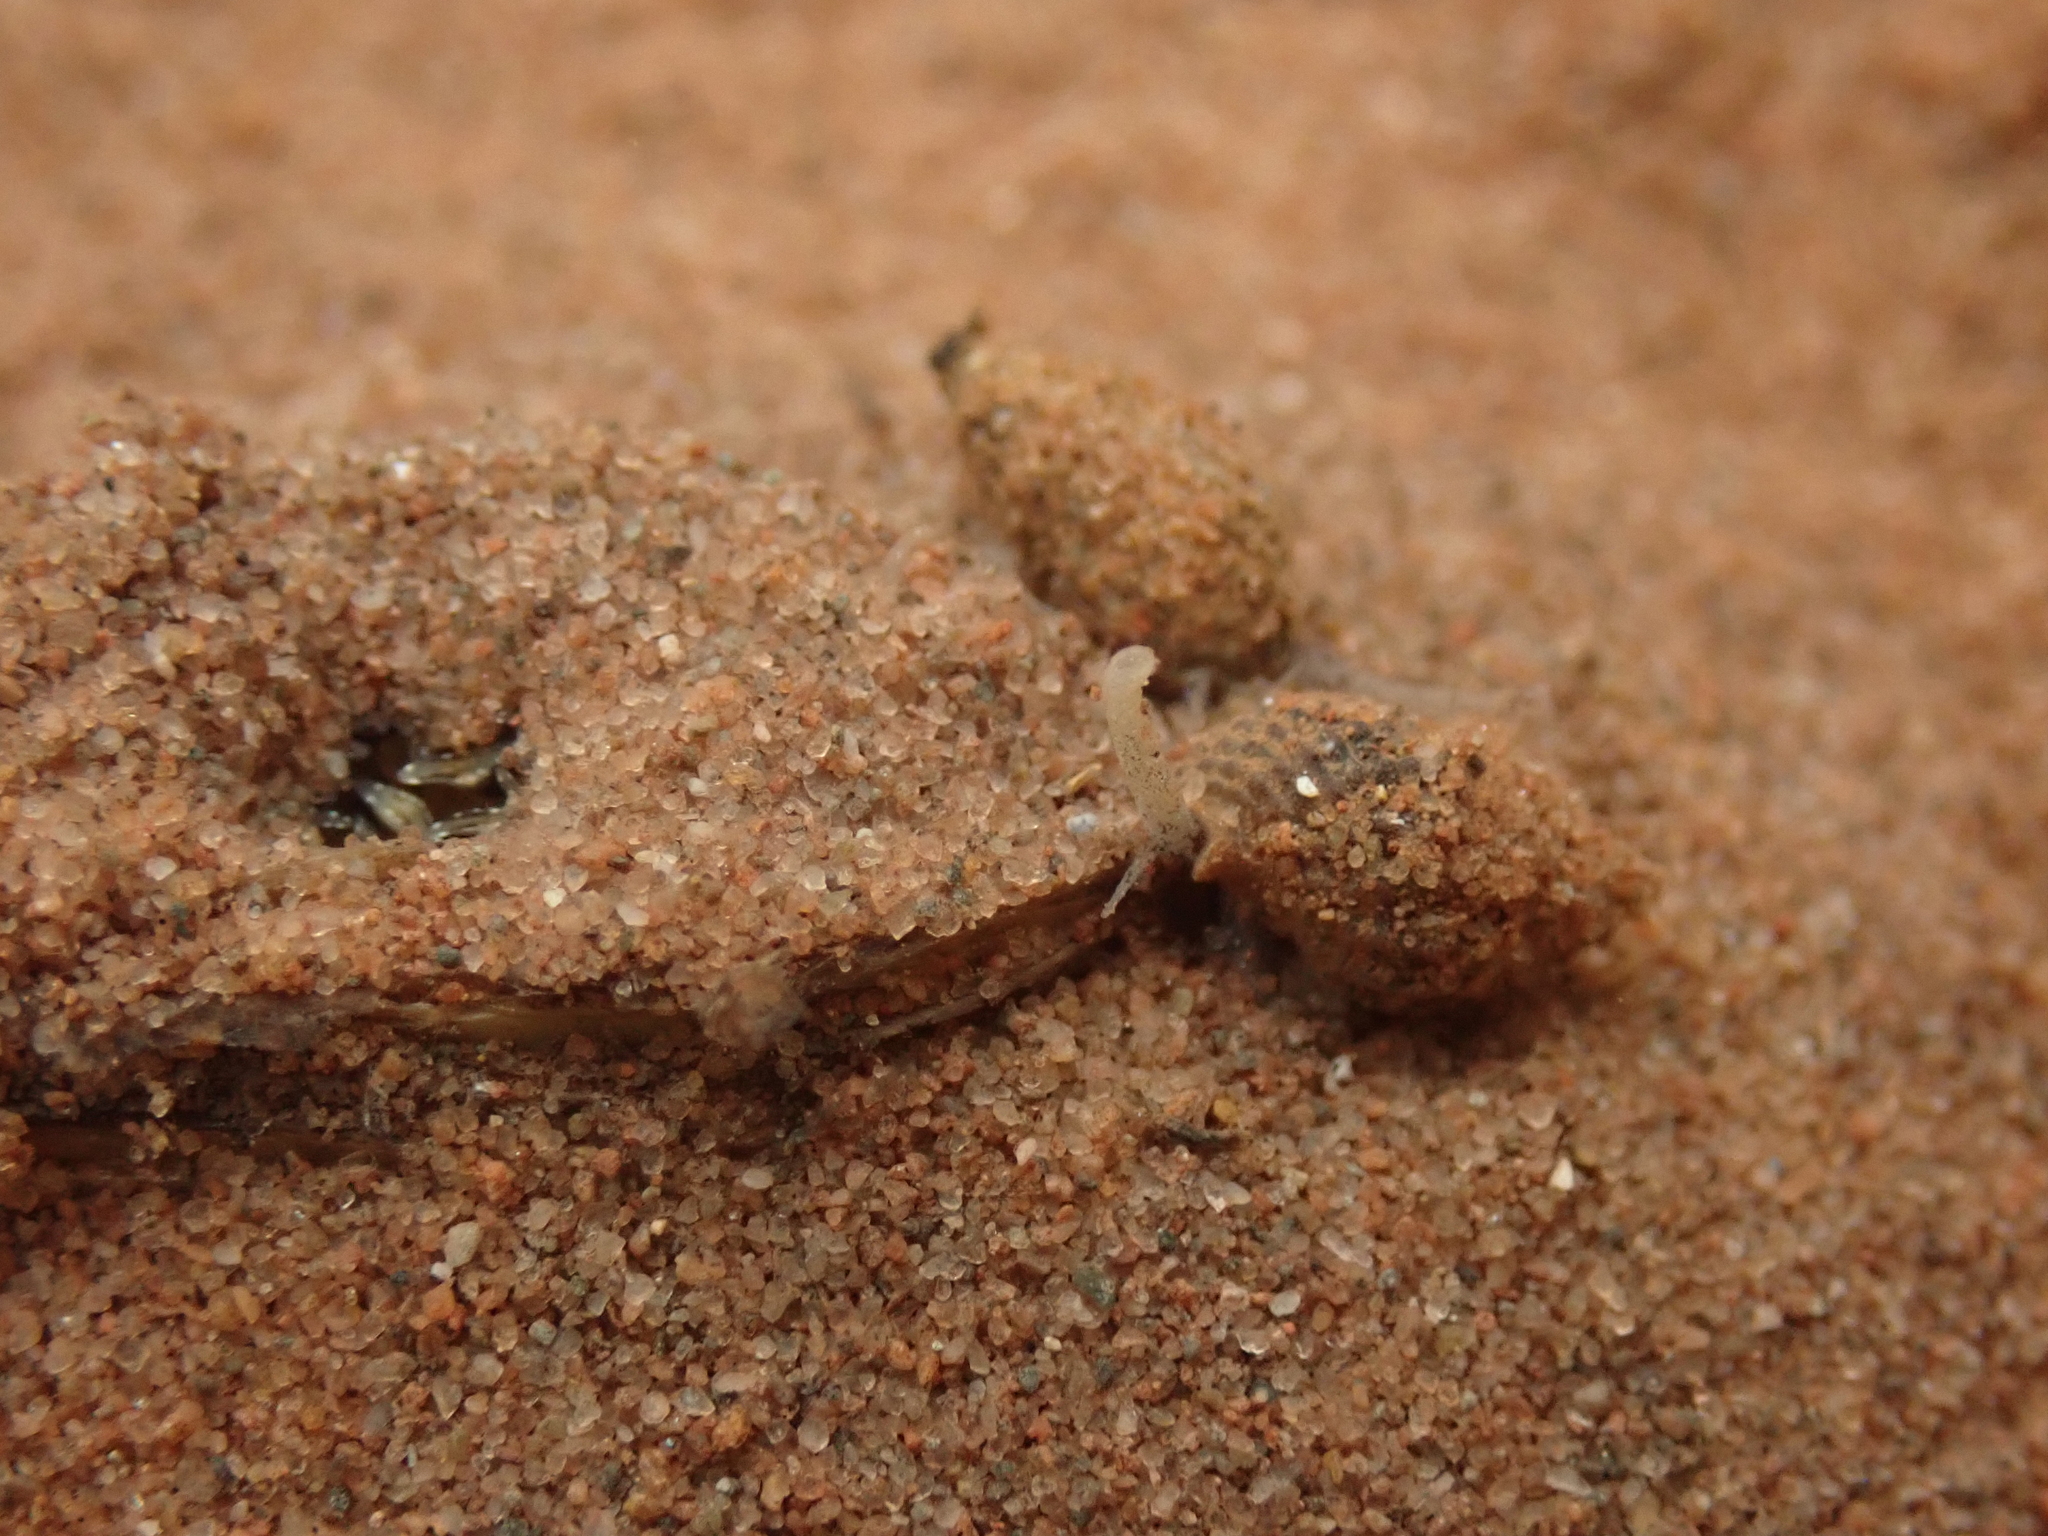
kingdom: Animalia
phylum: Mollusca
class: Gastropoda
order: Neogastropoda
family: Nassariidae
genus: Ilyanassa
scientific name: Ilyanassa trivittata
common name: Three-line mudsnail
